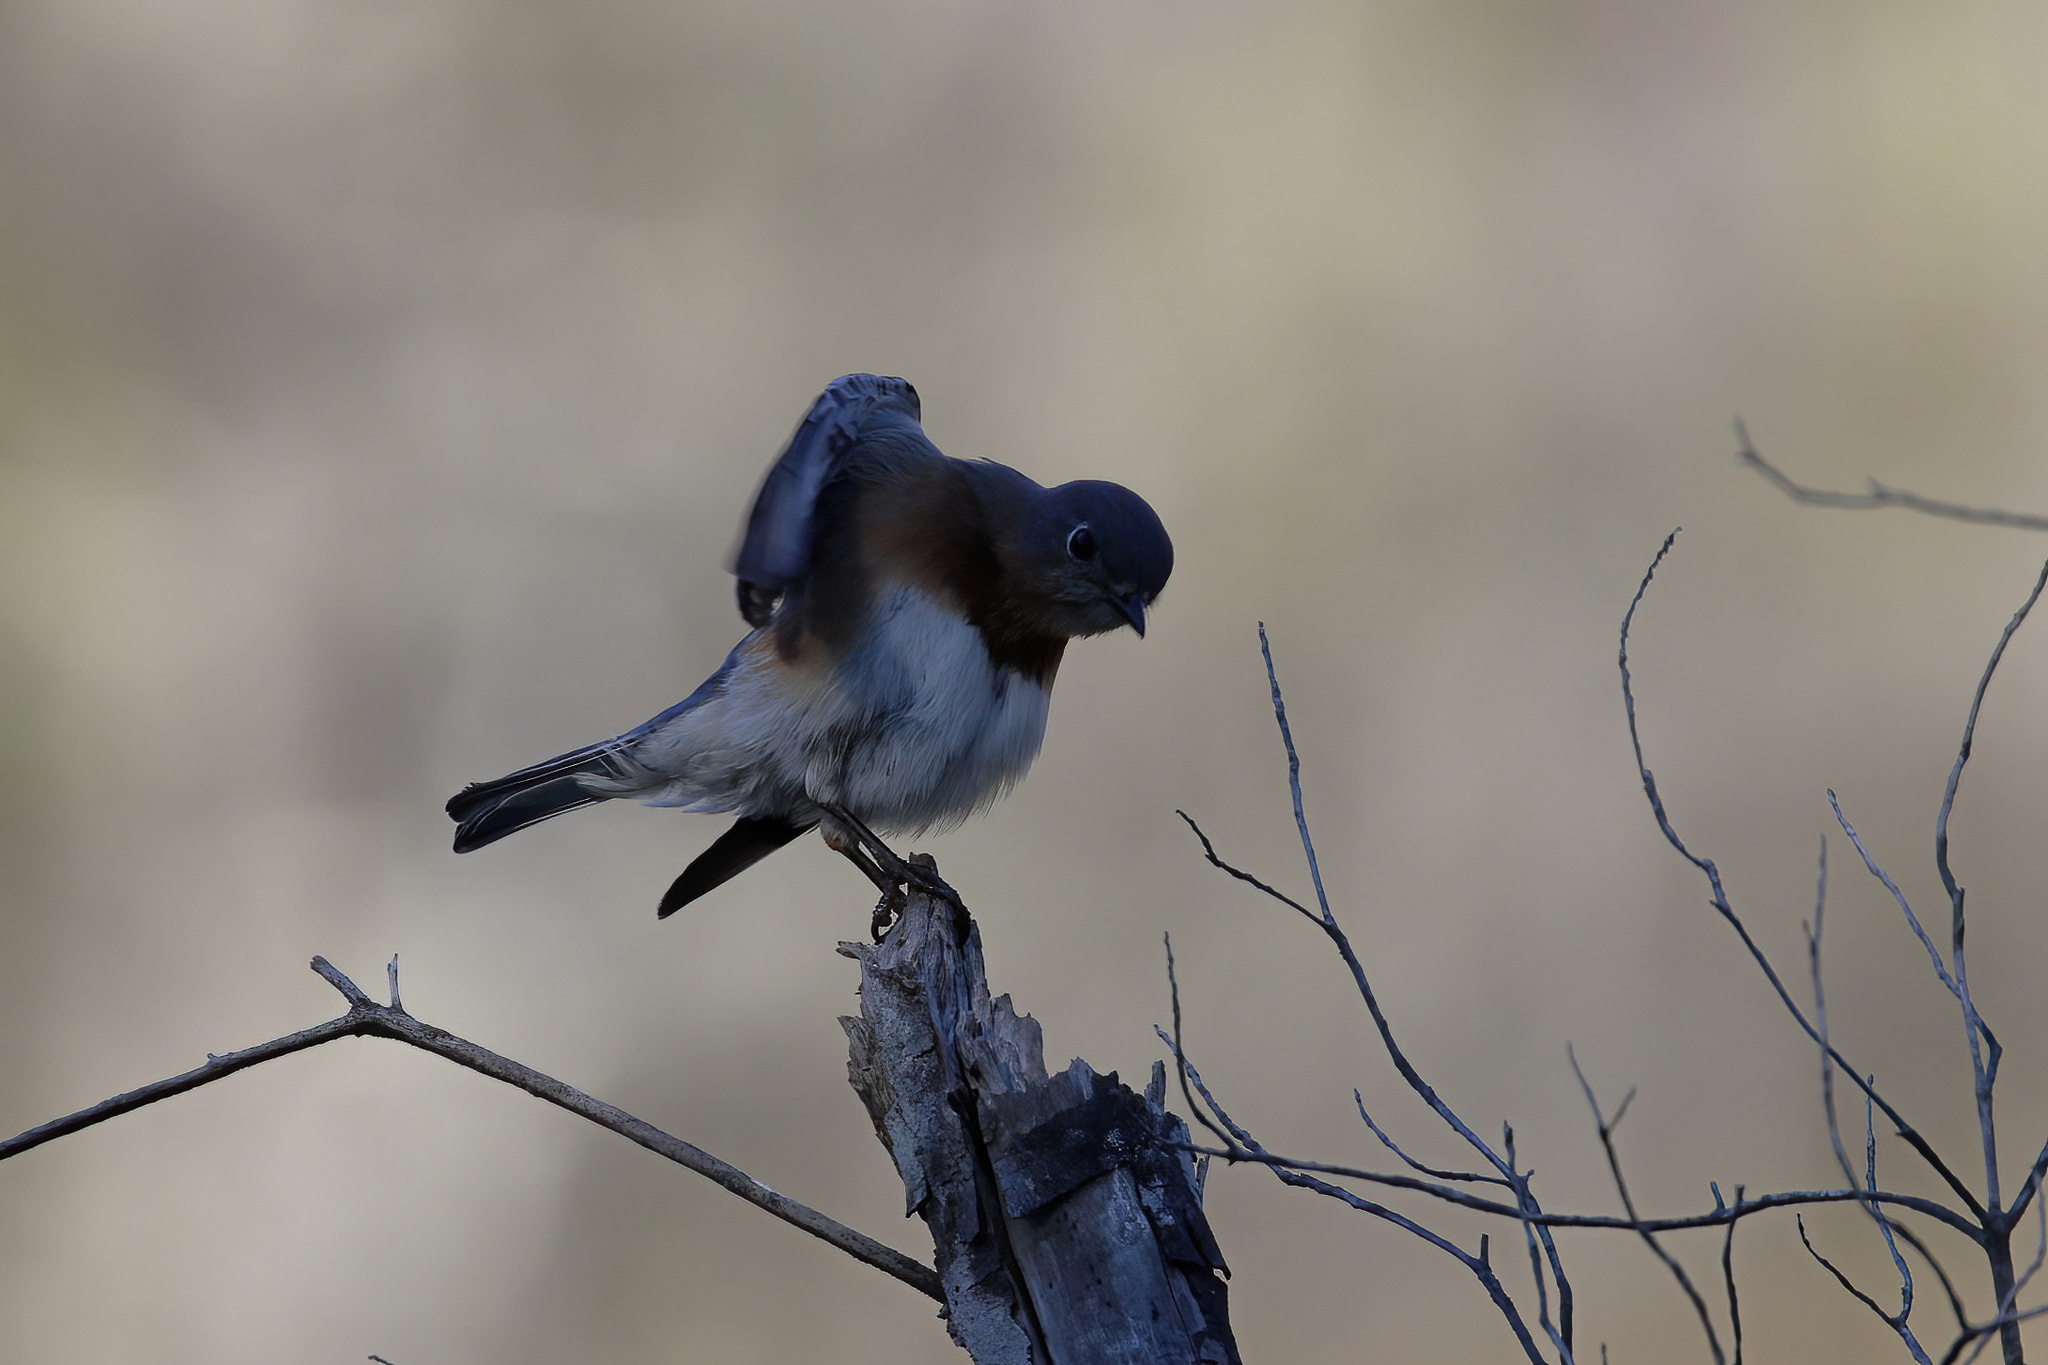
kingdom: Animalia
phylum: Chordata
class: Aves
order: Passeriformes
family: Turdidae
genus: Sialia
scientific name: Sialia sialis
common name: Eastern bluebird
